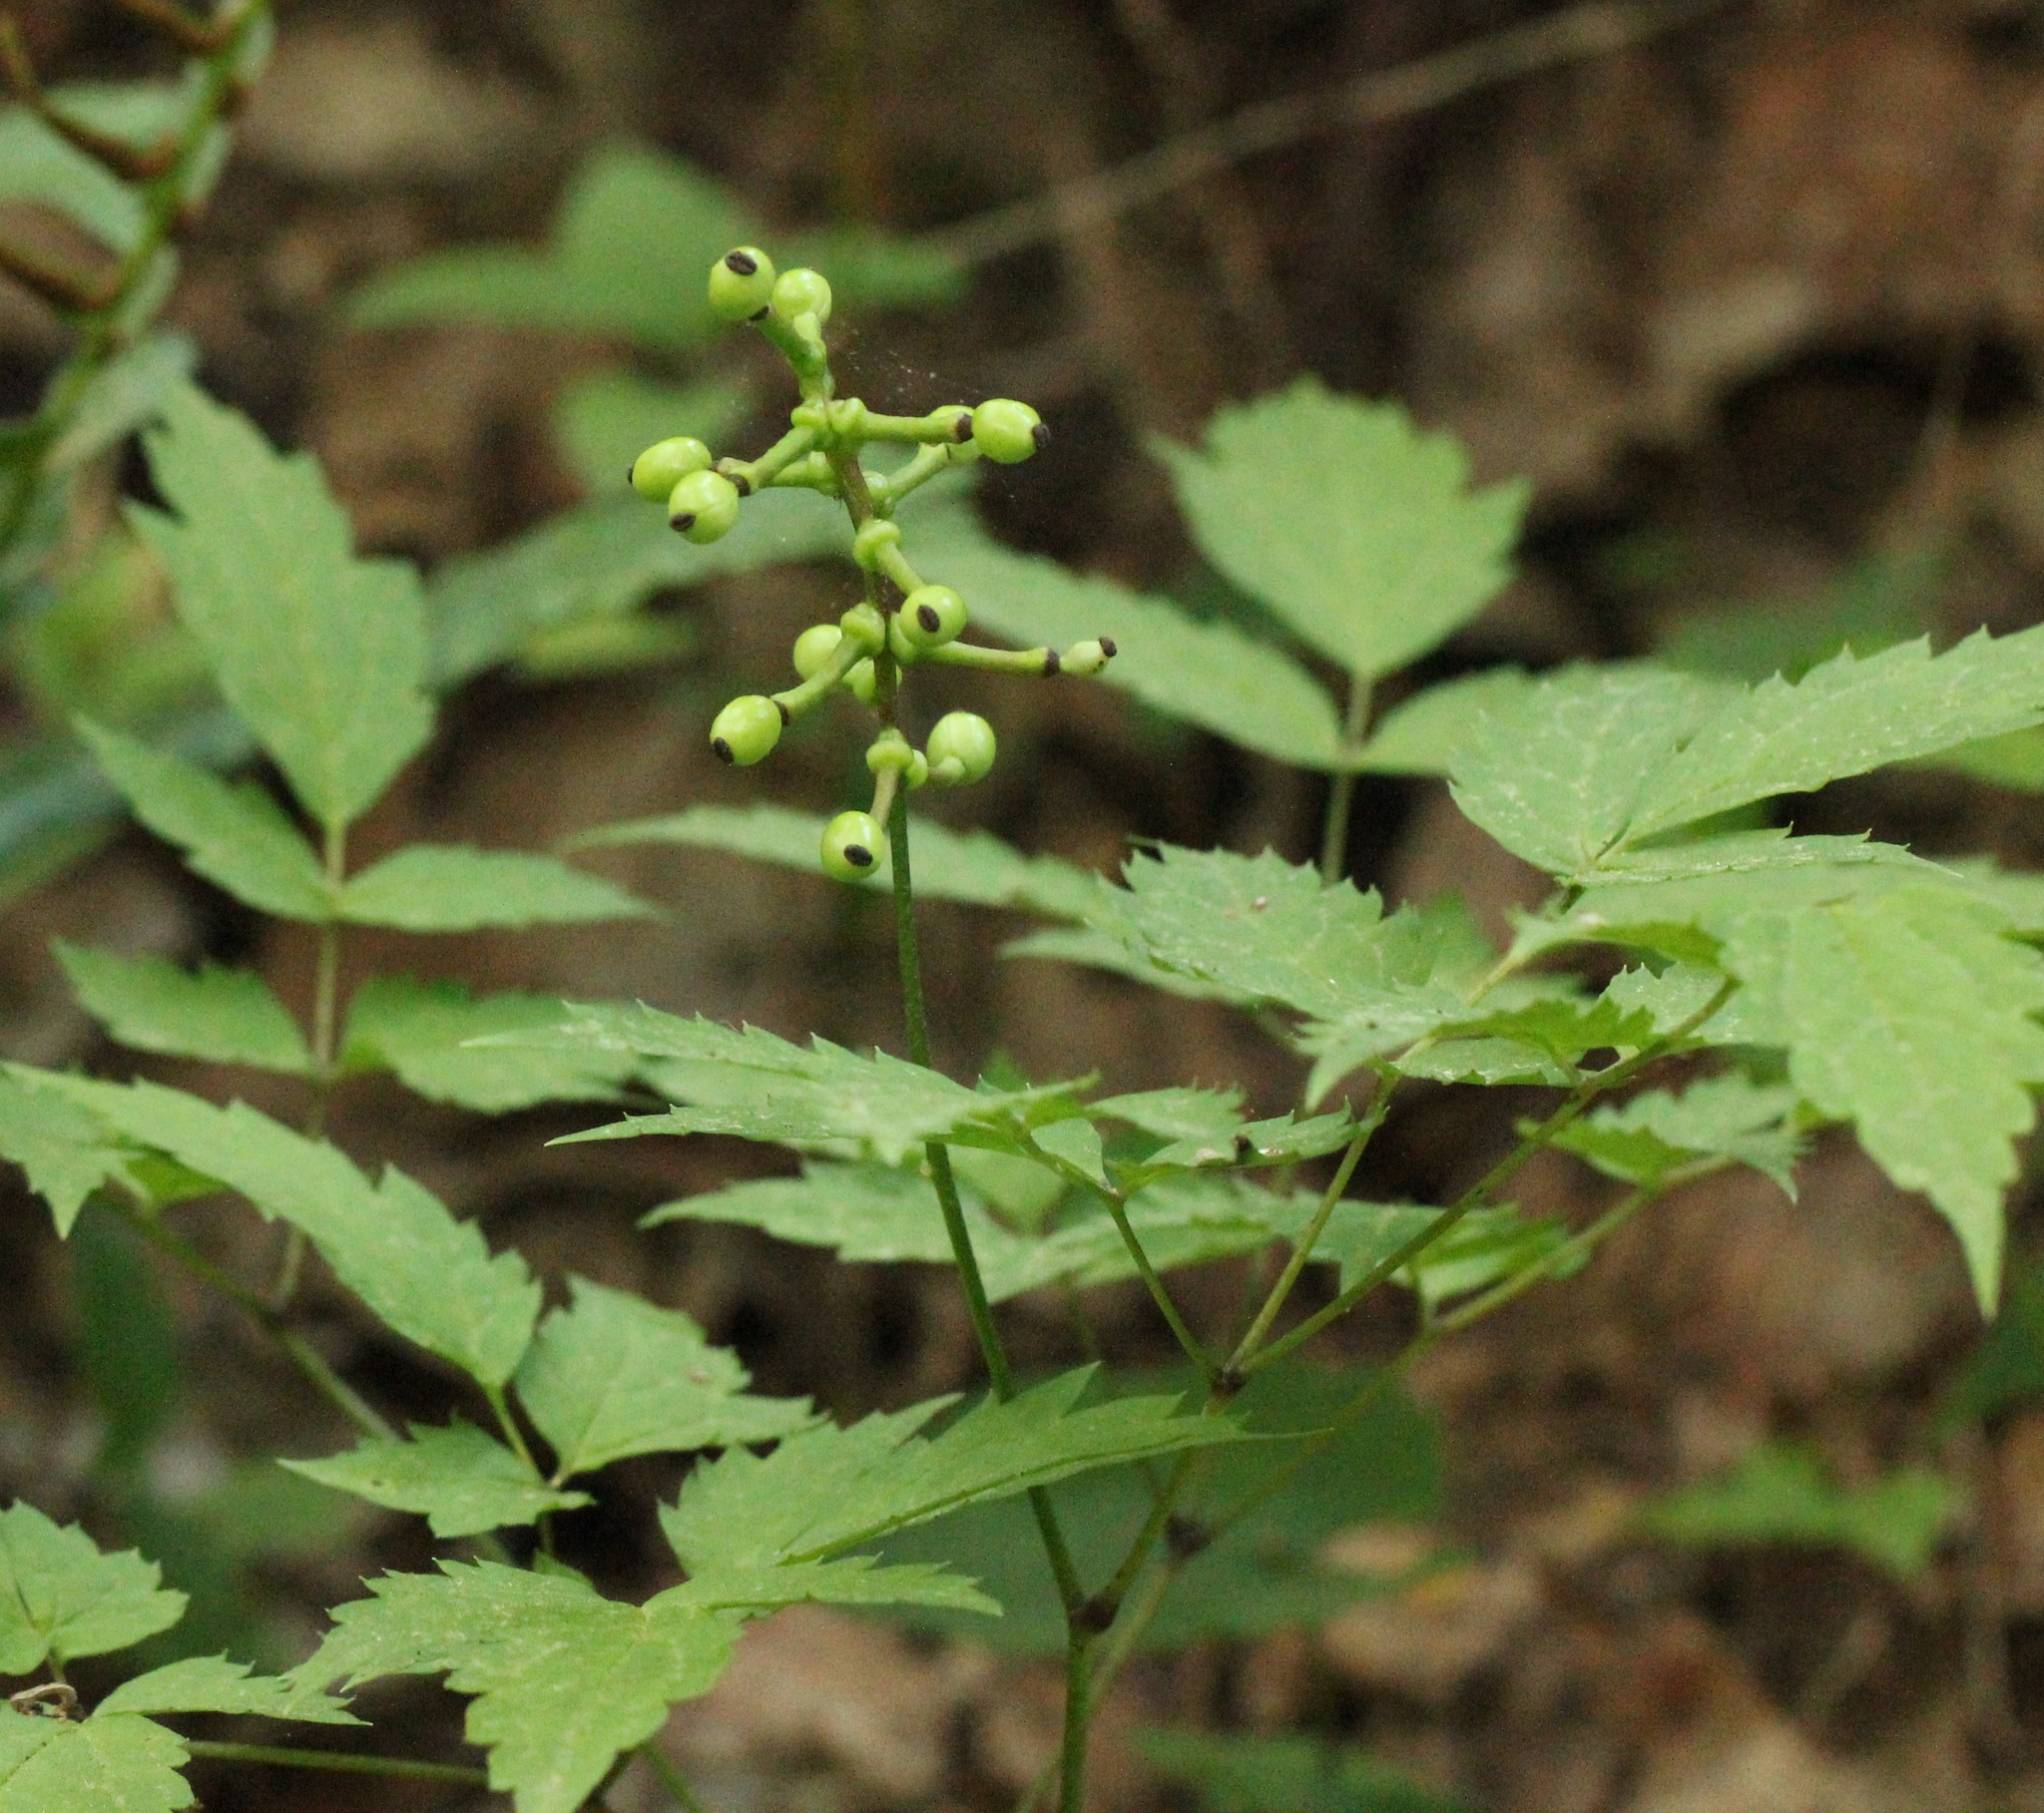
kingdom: Plantae
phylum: Tracheophyta
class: Magnoliopsida
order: Ranunculales
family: Ranunculaceae
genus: Actaea
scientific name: Actaea pachypoda
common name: Doll's-eyes
